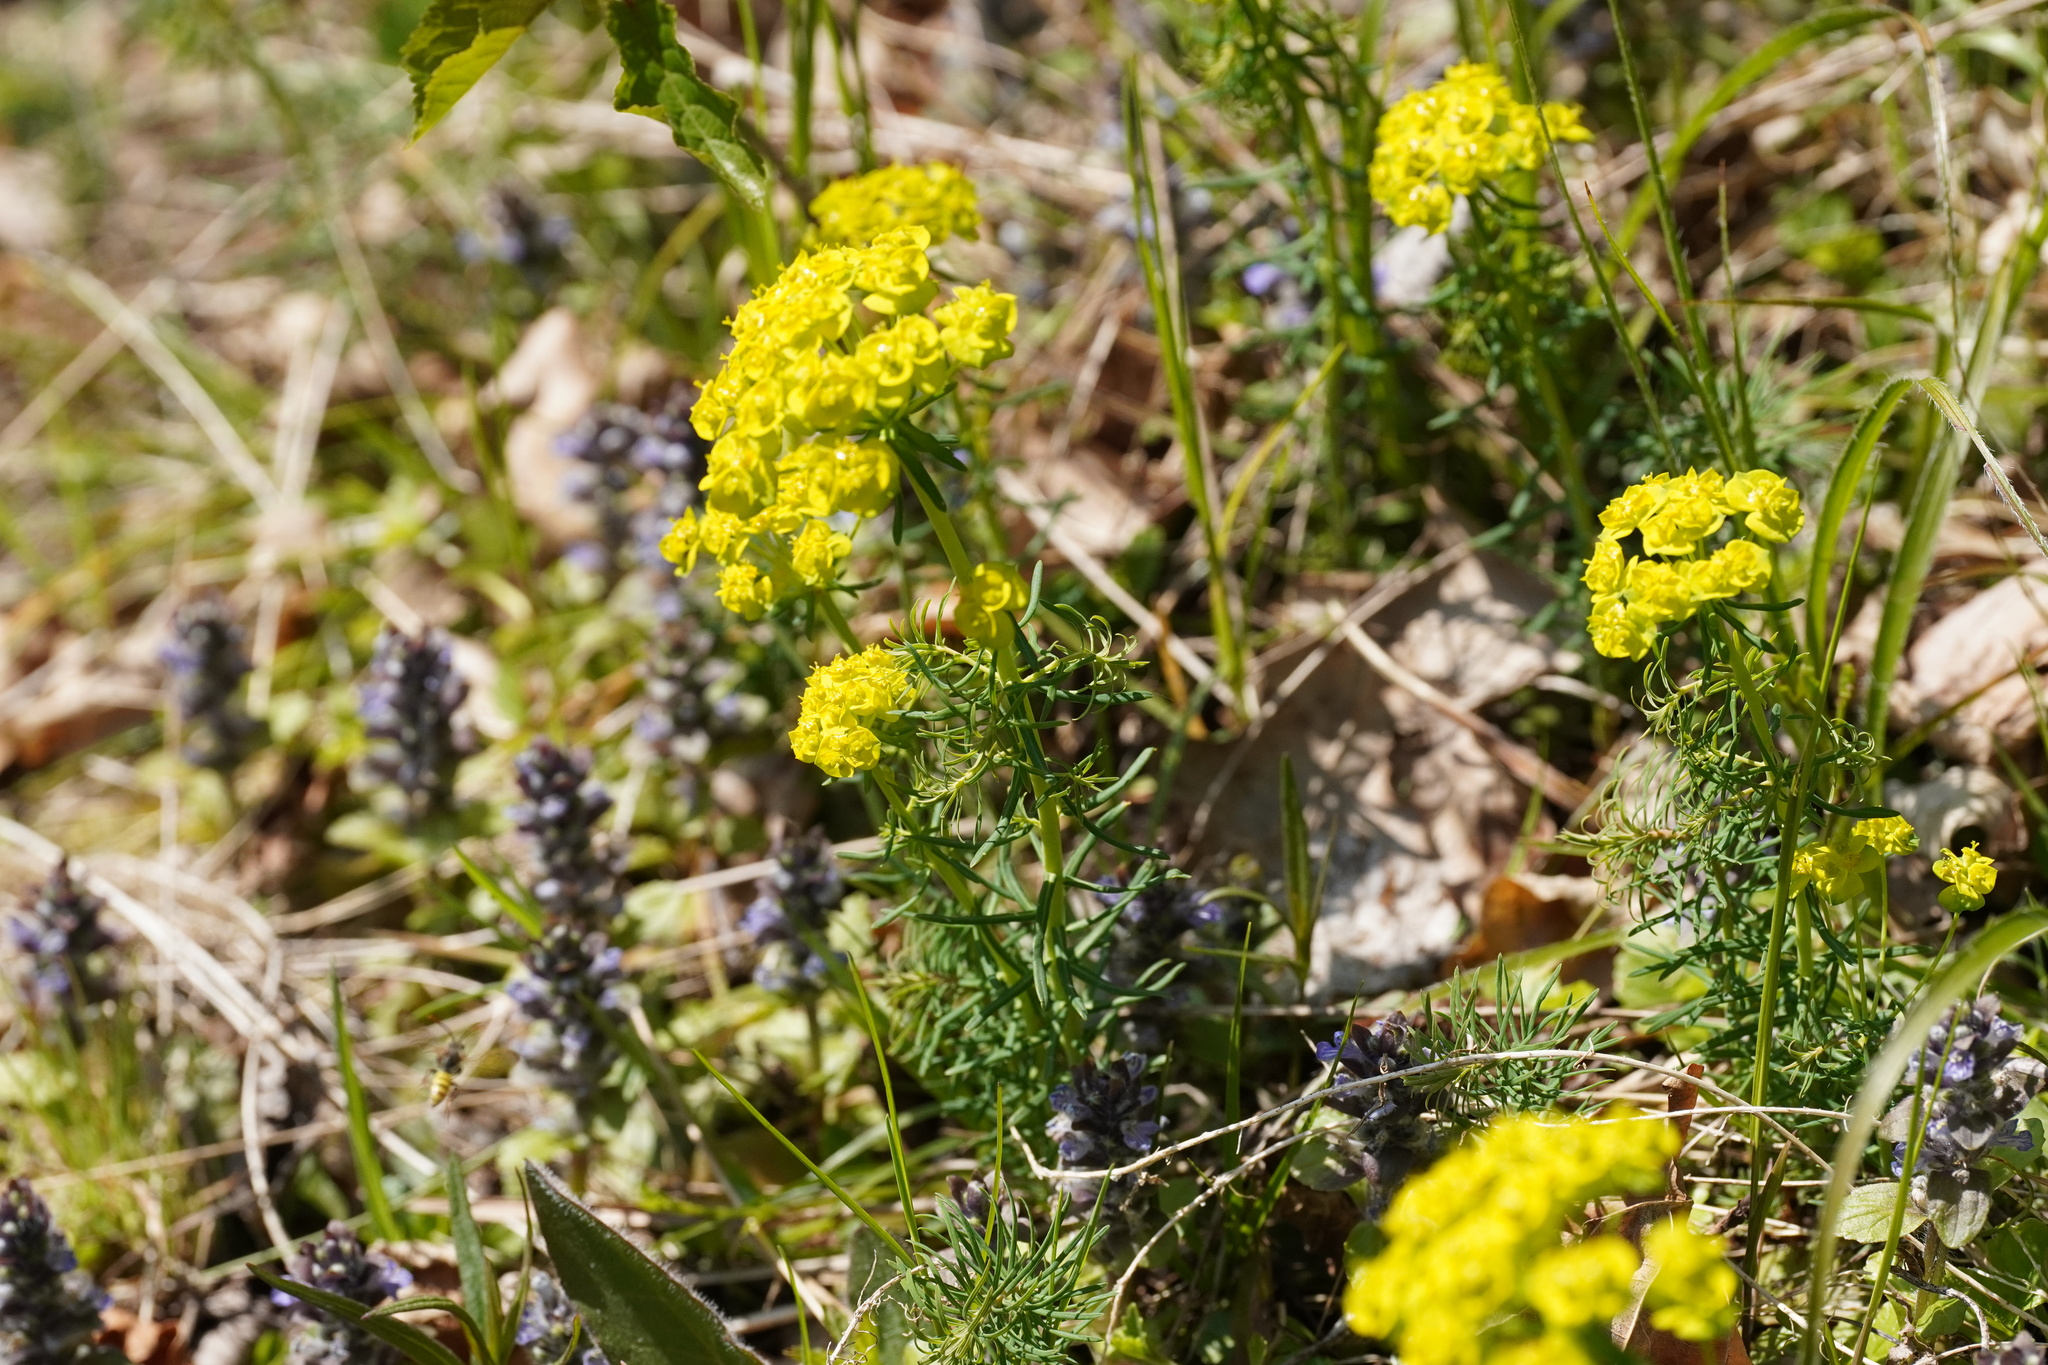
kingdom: Plantae
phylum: Tracheophyta
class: Magnoliopsida
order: Malpighiales
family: Euphorbiaceae
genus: Euphorbia
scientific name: Euphorbia cyparissias
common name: Cypress spurge
